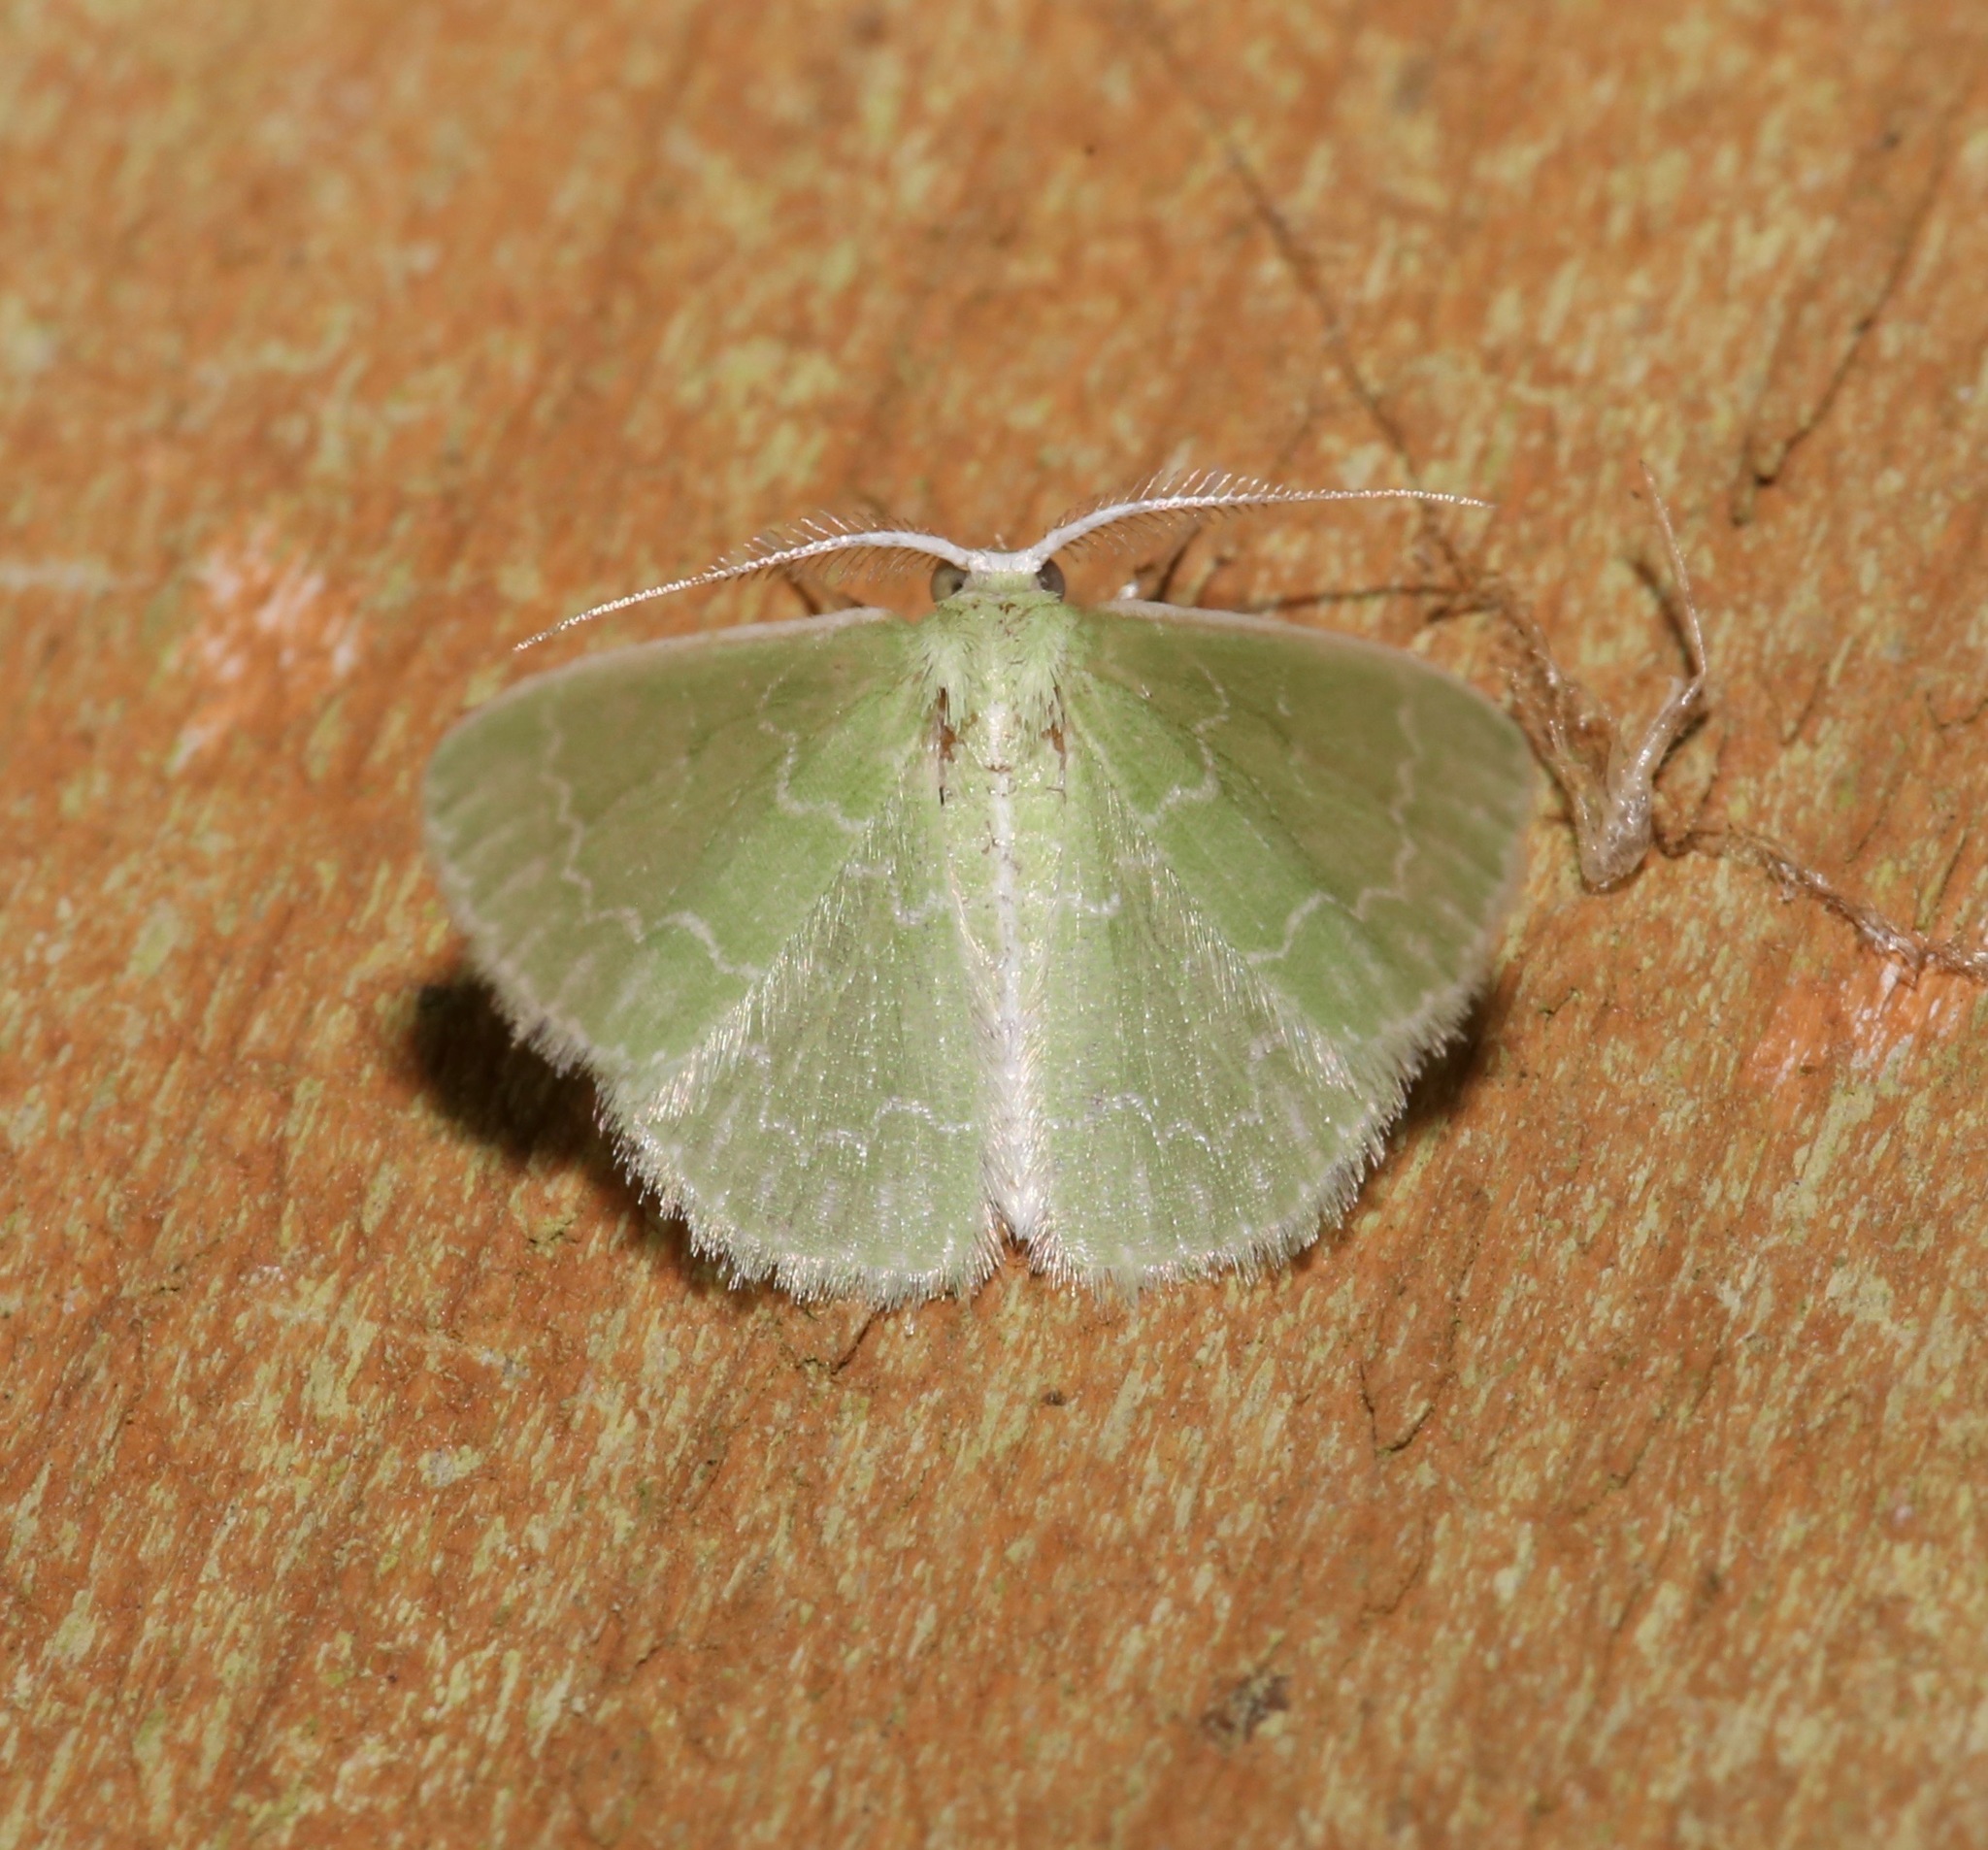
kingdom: Animalia
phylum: Arthropoda
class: Insecta
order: Lepidoptera
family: Geometridae
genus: Synchlora
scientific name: Synchlora frondaria
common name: Southern emerald
